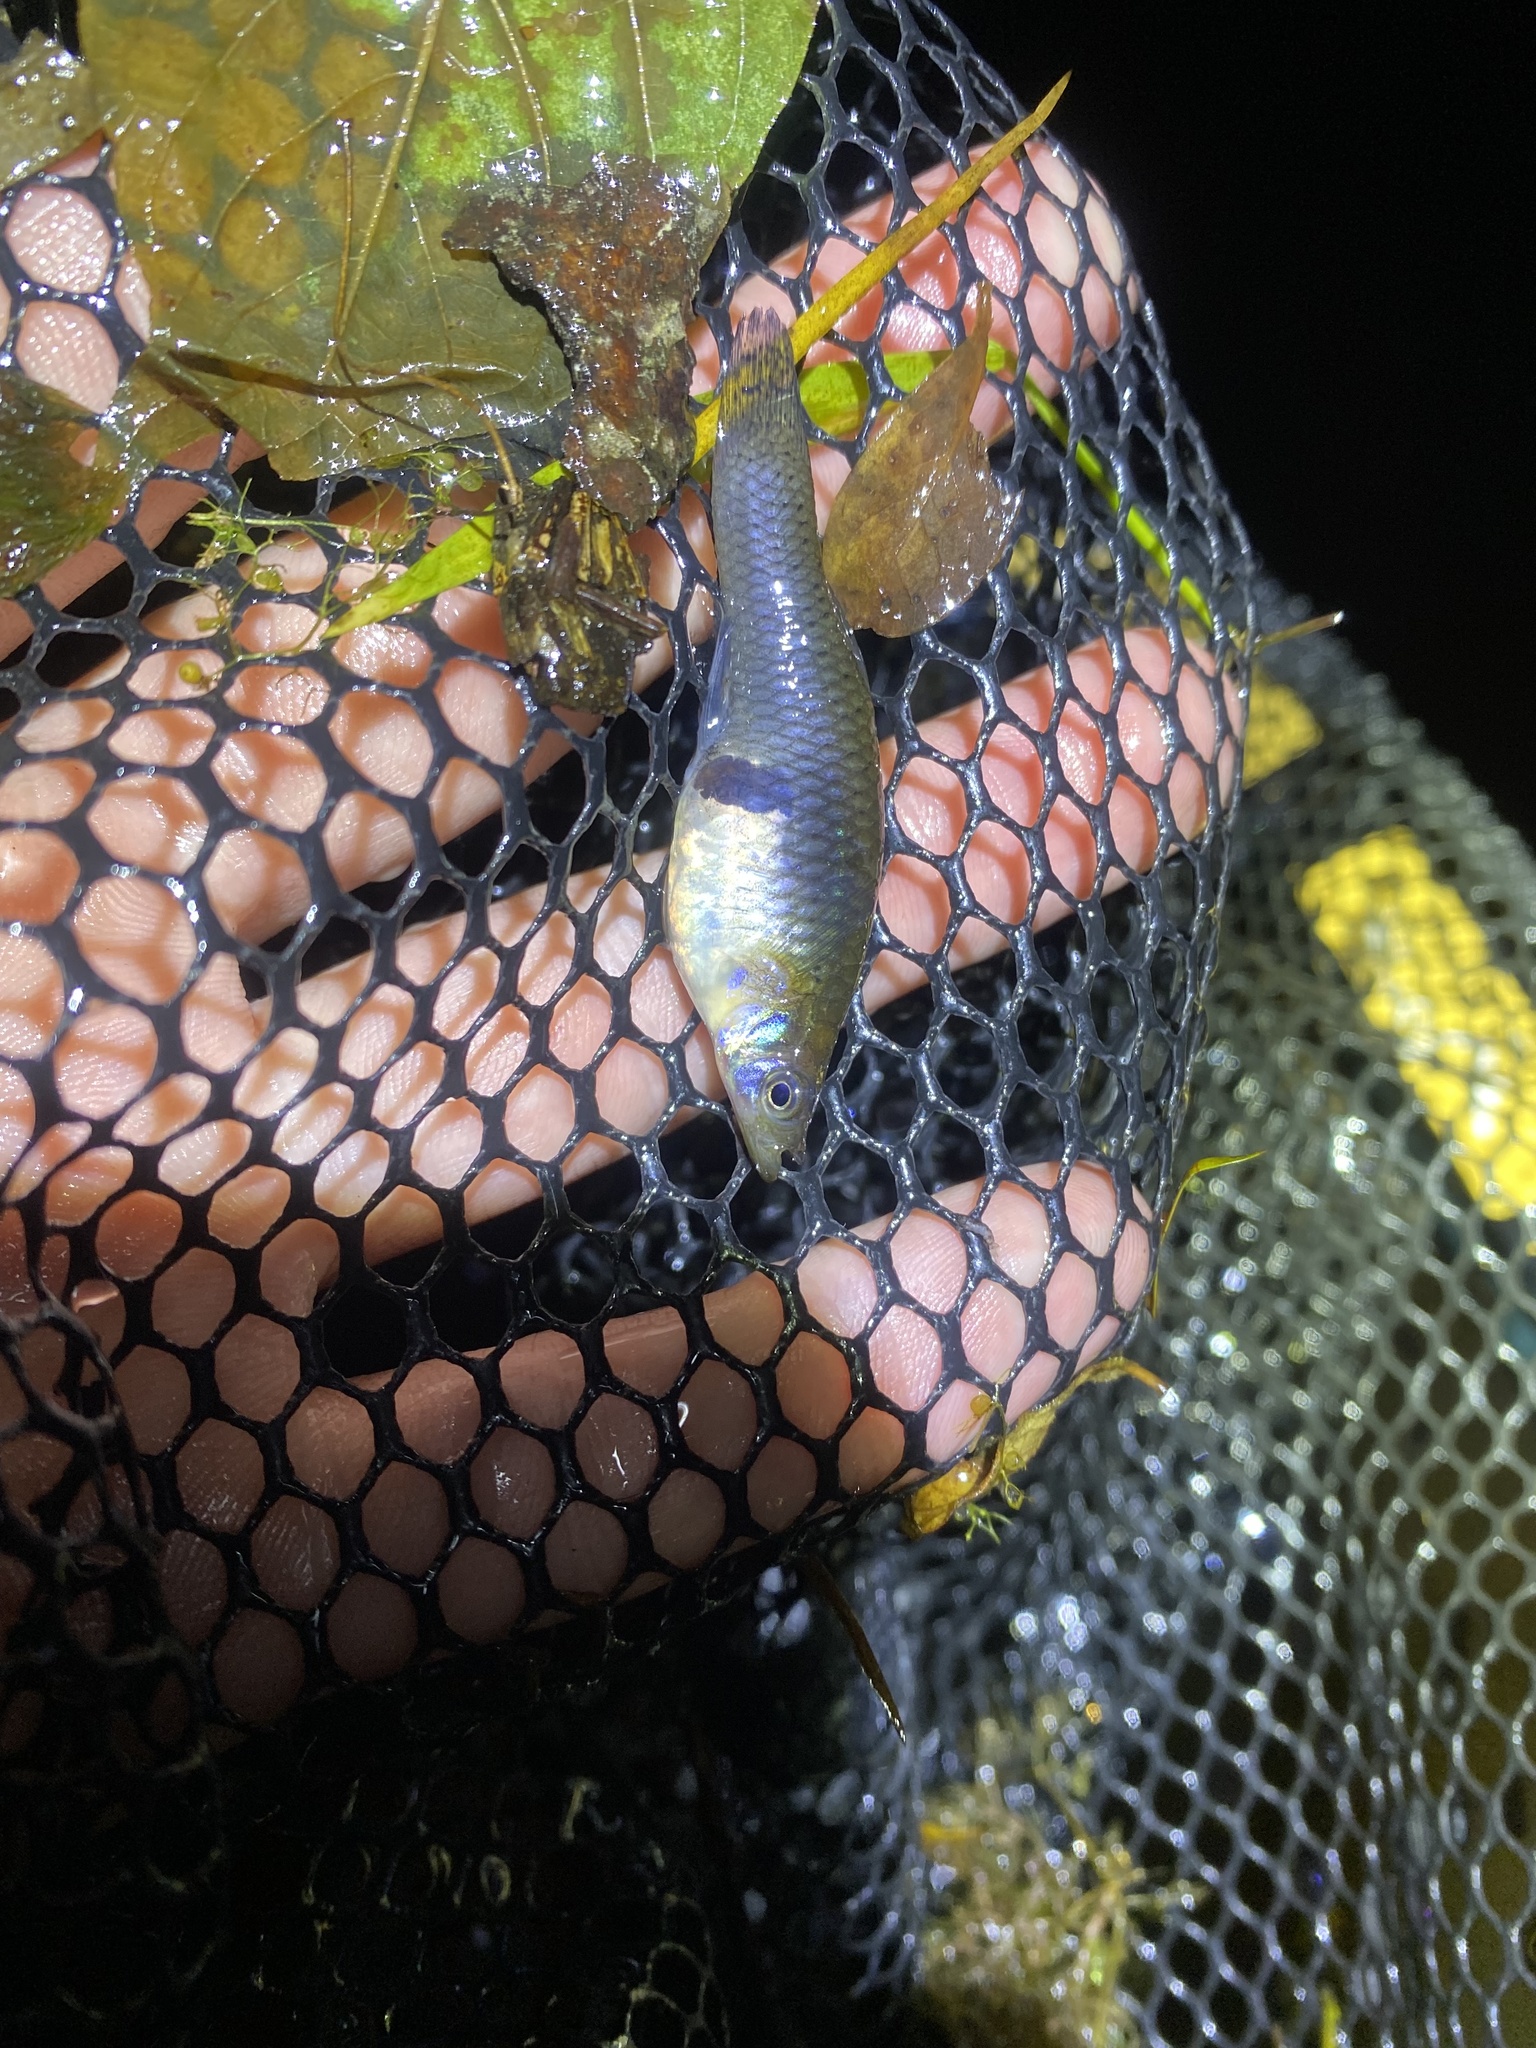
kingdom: Animalia
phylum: Chordata
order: Cyprinodontiformes
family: Poeciliidae
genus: Gambusia
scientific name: Gambusia holbrooki
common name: Eastern mosquitofish
